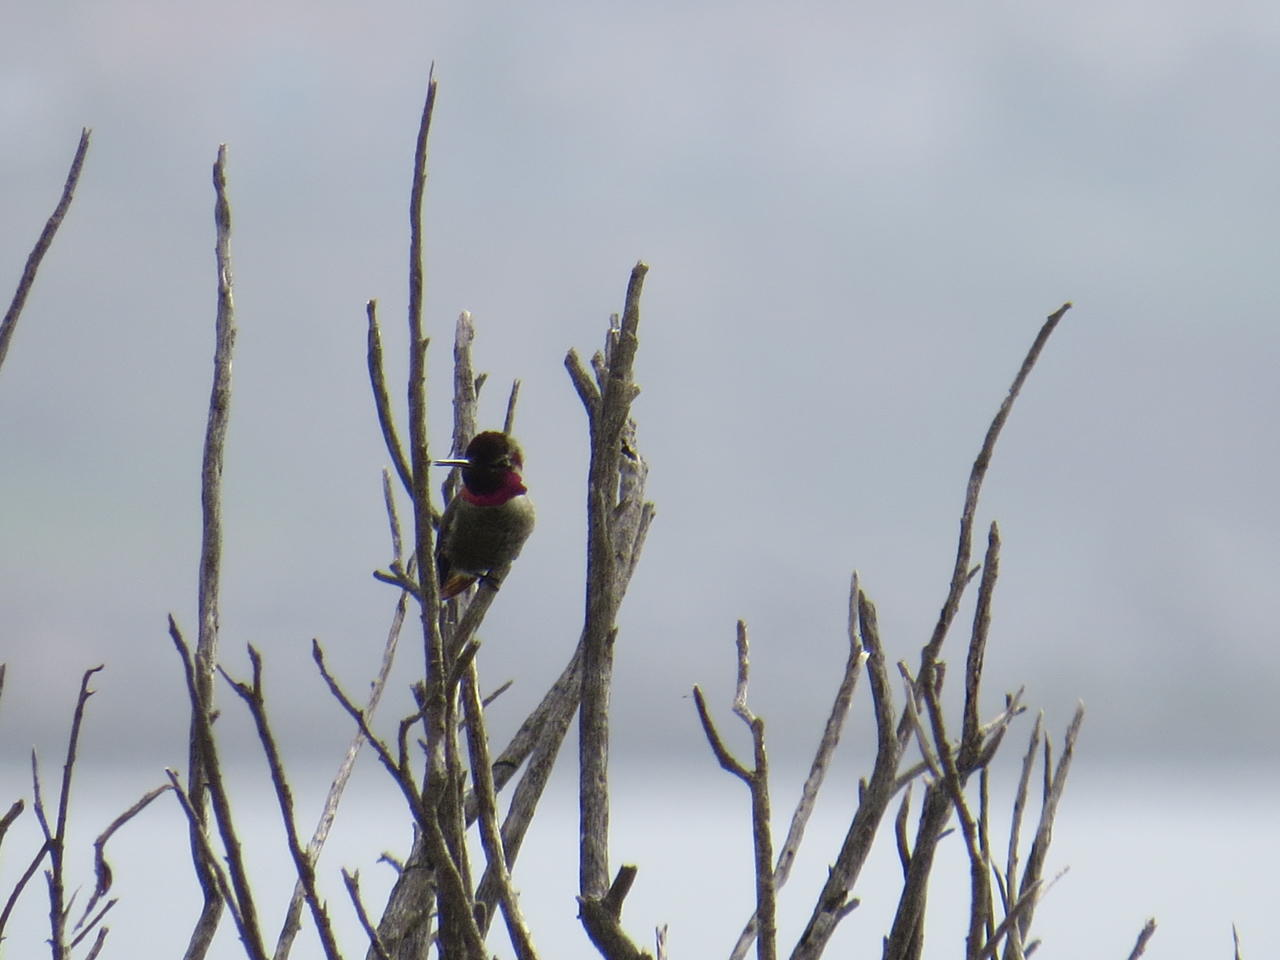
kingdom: Animalia
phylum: Chordata
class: Aves
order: Apodiformes
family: Trochilidae
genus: Calypte
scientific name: Calypte anna
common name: Anna's hummingbird
